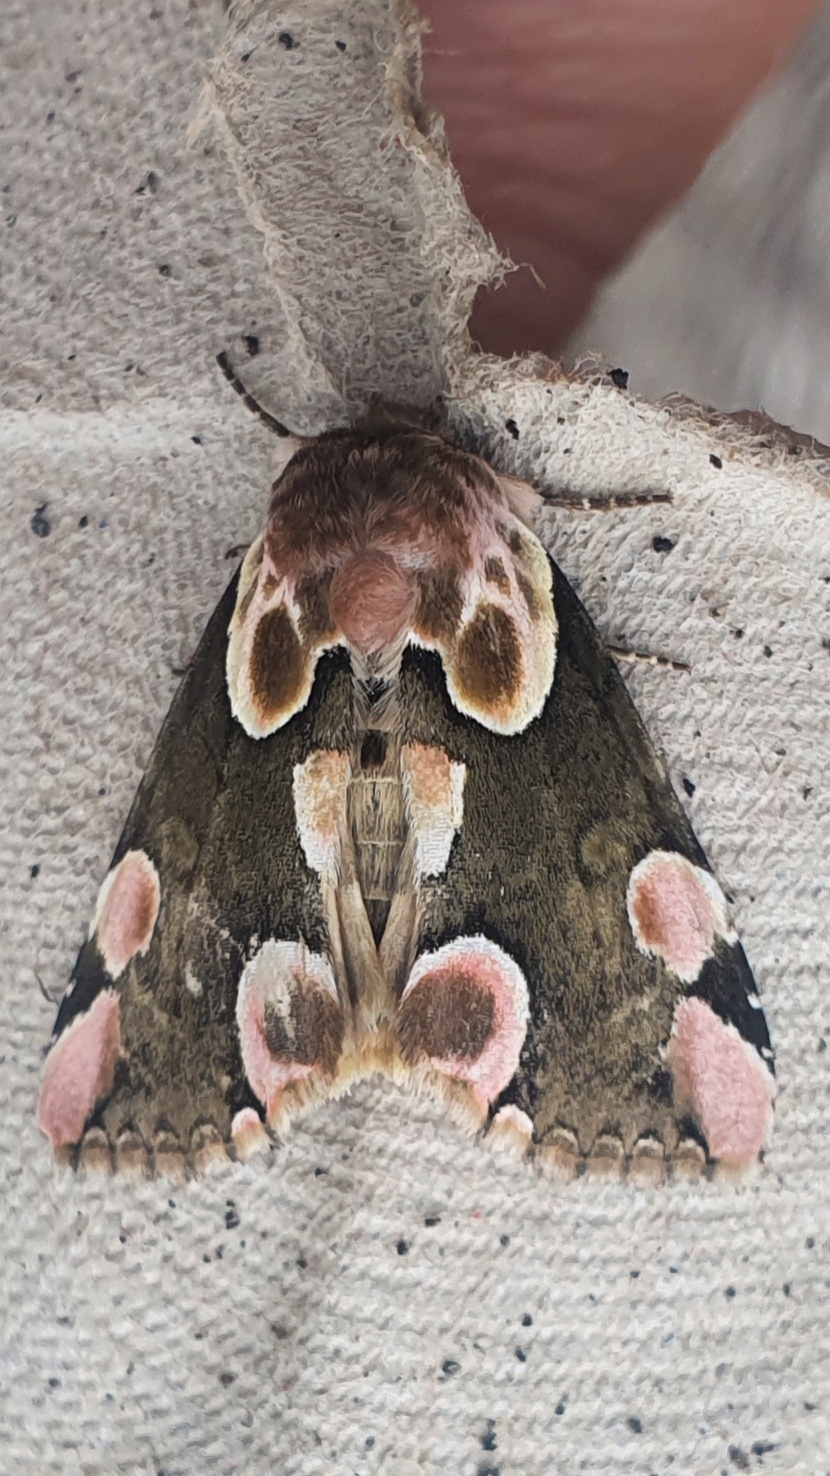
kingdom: Animalia
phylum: Arthropoda
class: Insecta
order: Lepidoptera
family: Drepanidae
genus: Thyatira
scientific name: Thyatira batis
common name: Peach blossom
